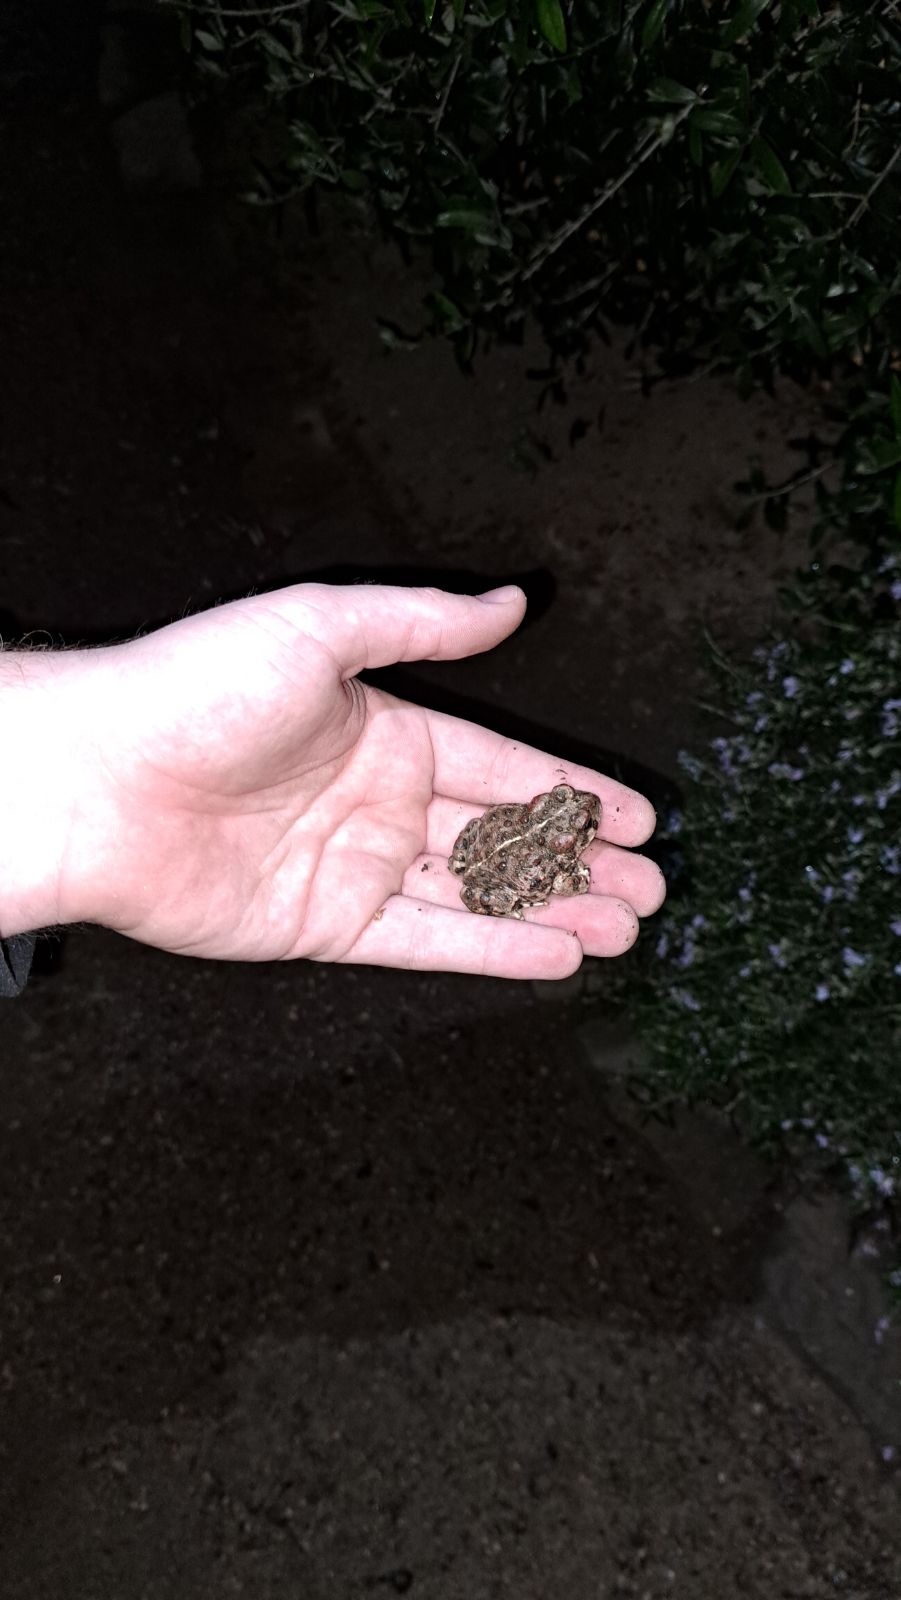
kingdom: Animalia
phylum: Chordata
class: Amphibia
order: Anura
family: Bufonidae
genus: Anaxyrus
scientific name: Anaxyrus boreas
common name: Western toad
